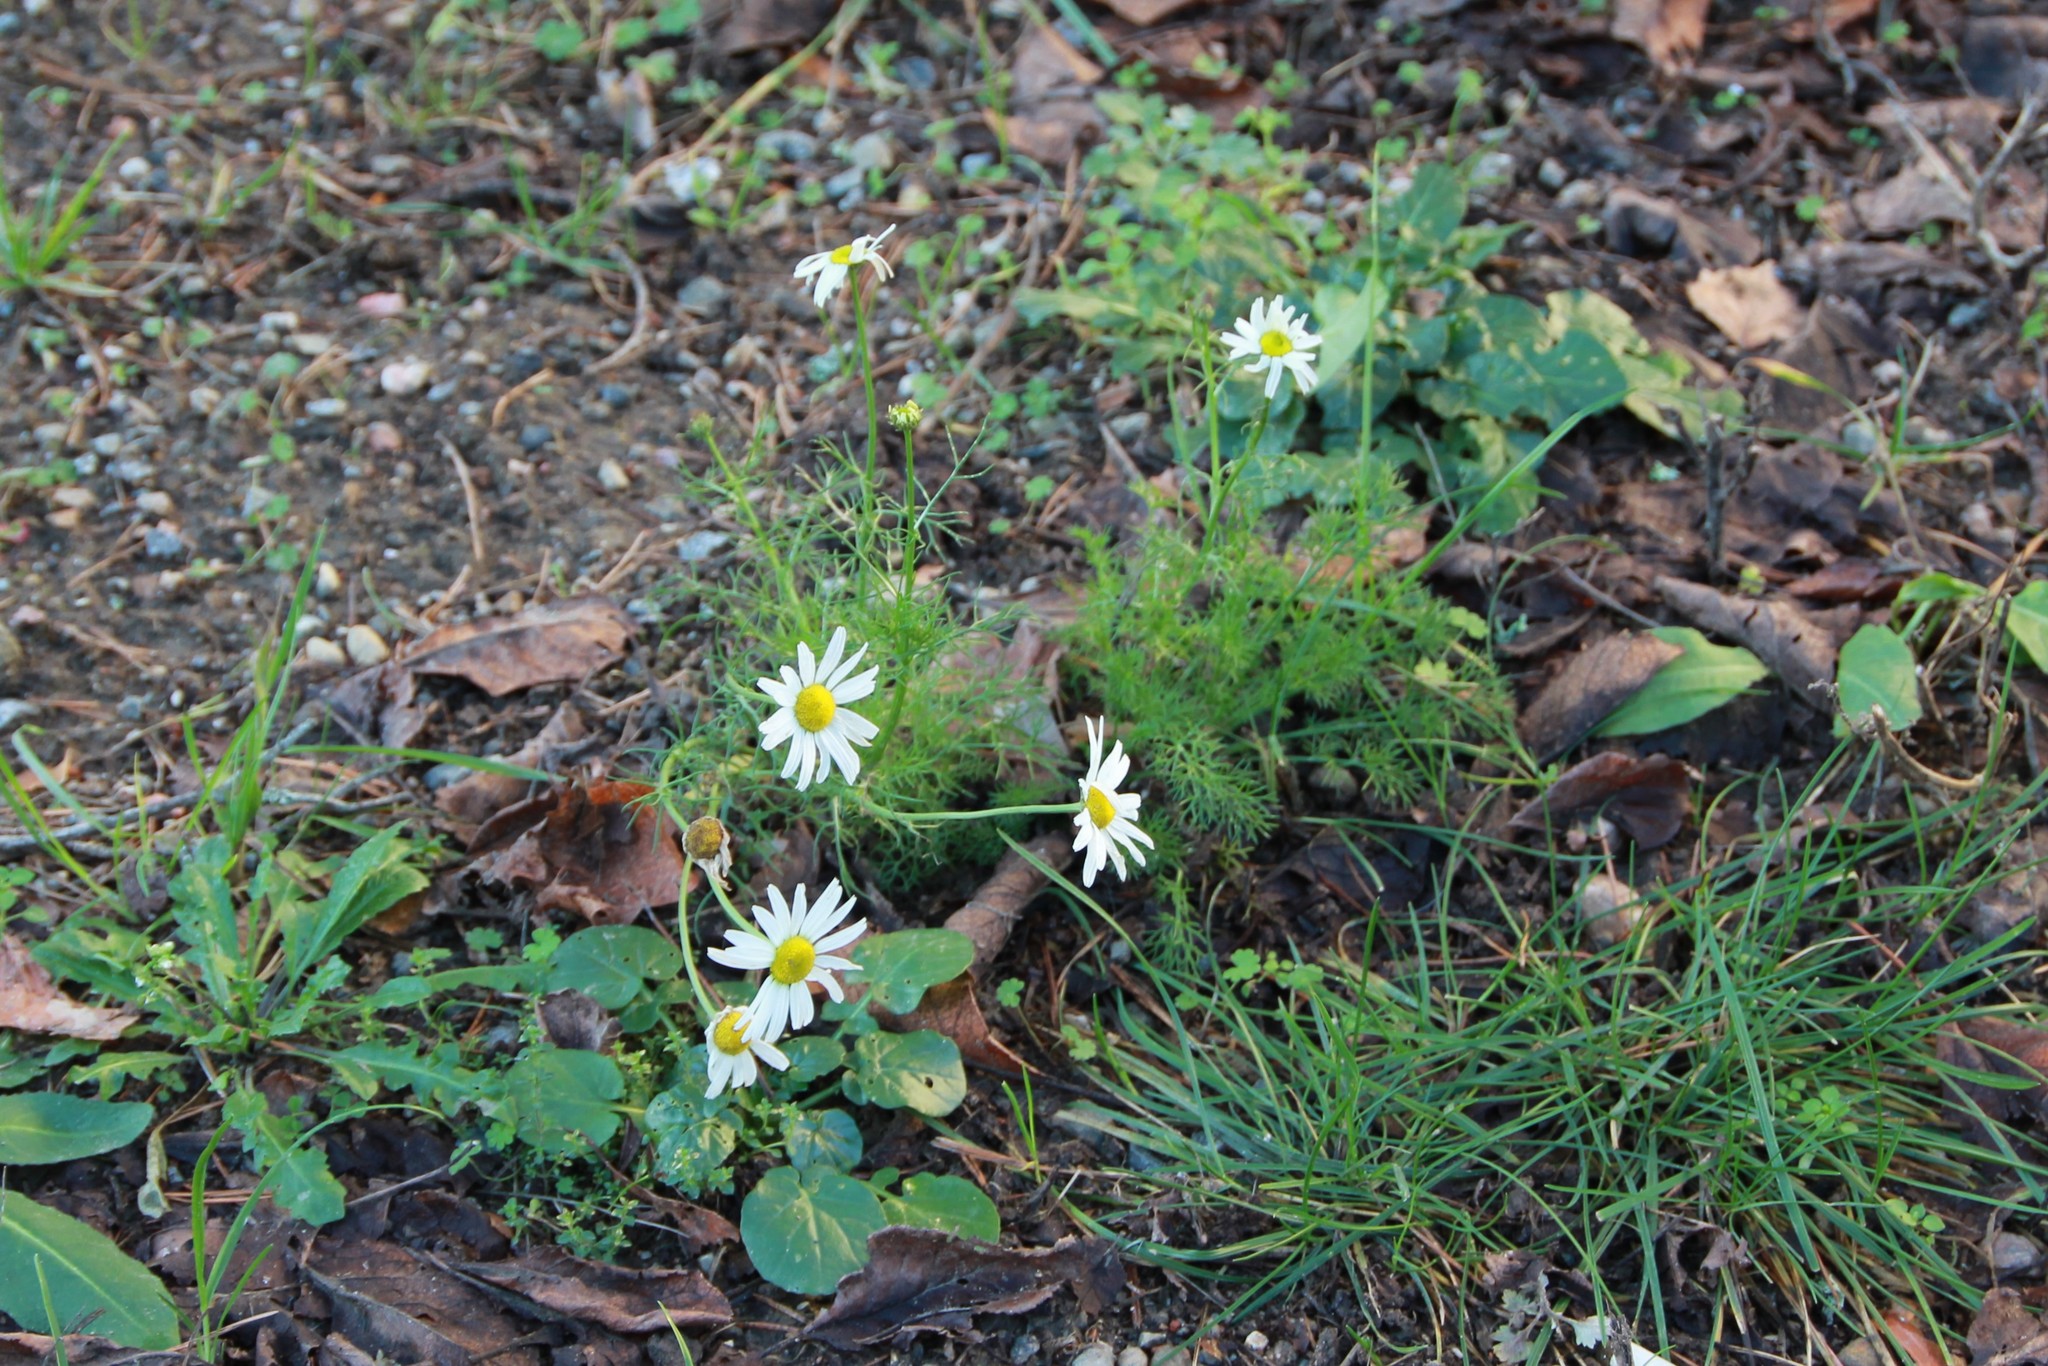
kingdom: Plantae
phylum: Tracheophyta
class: Magnoliopsida
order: Asterales
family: Asteraceae
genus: Tripleurospermum
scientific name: Tripleurospermum inodorum
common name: Scentless mayweed
